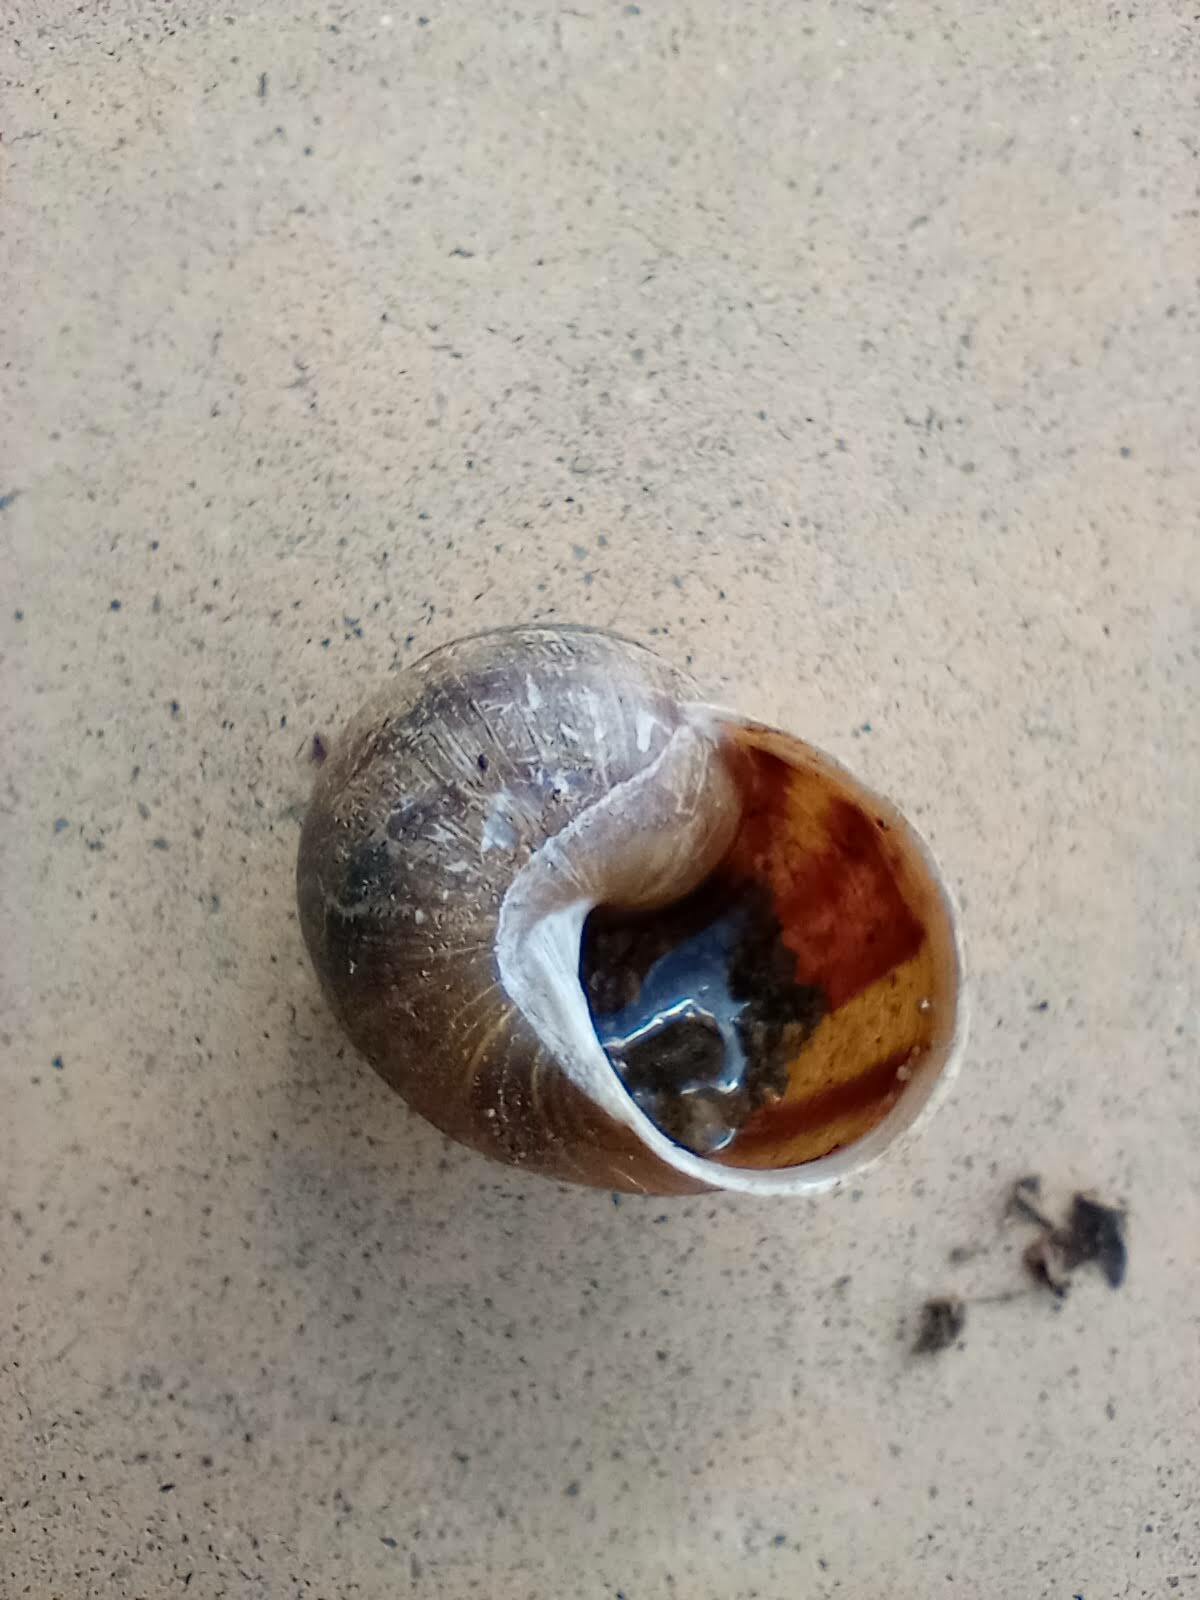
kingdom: Animalia
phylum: Mollusca
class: Gastropoda
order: Stylommatophora
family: Helicidae
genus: Cornu
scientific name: Cornu aspersum
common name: Brown garden snail
